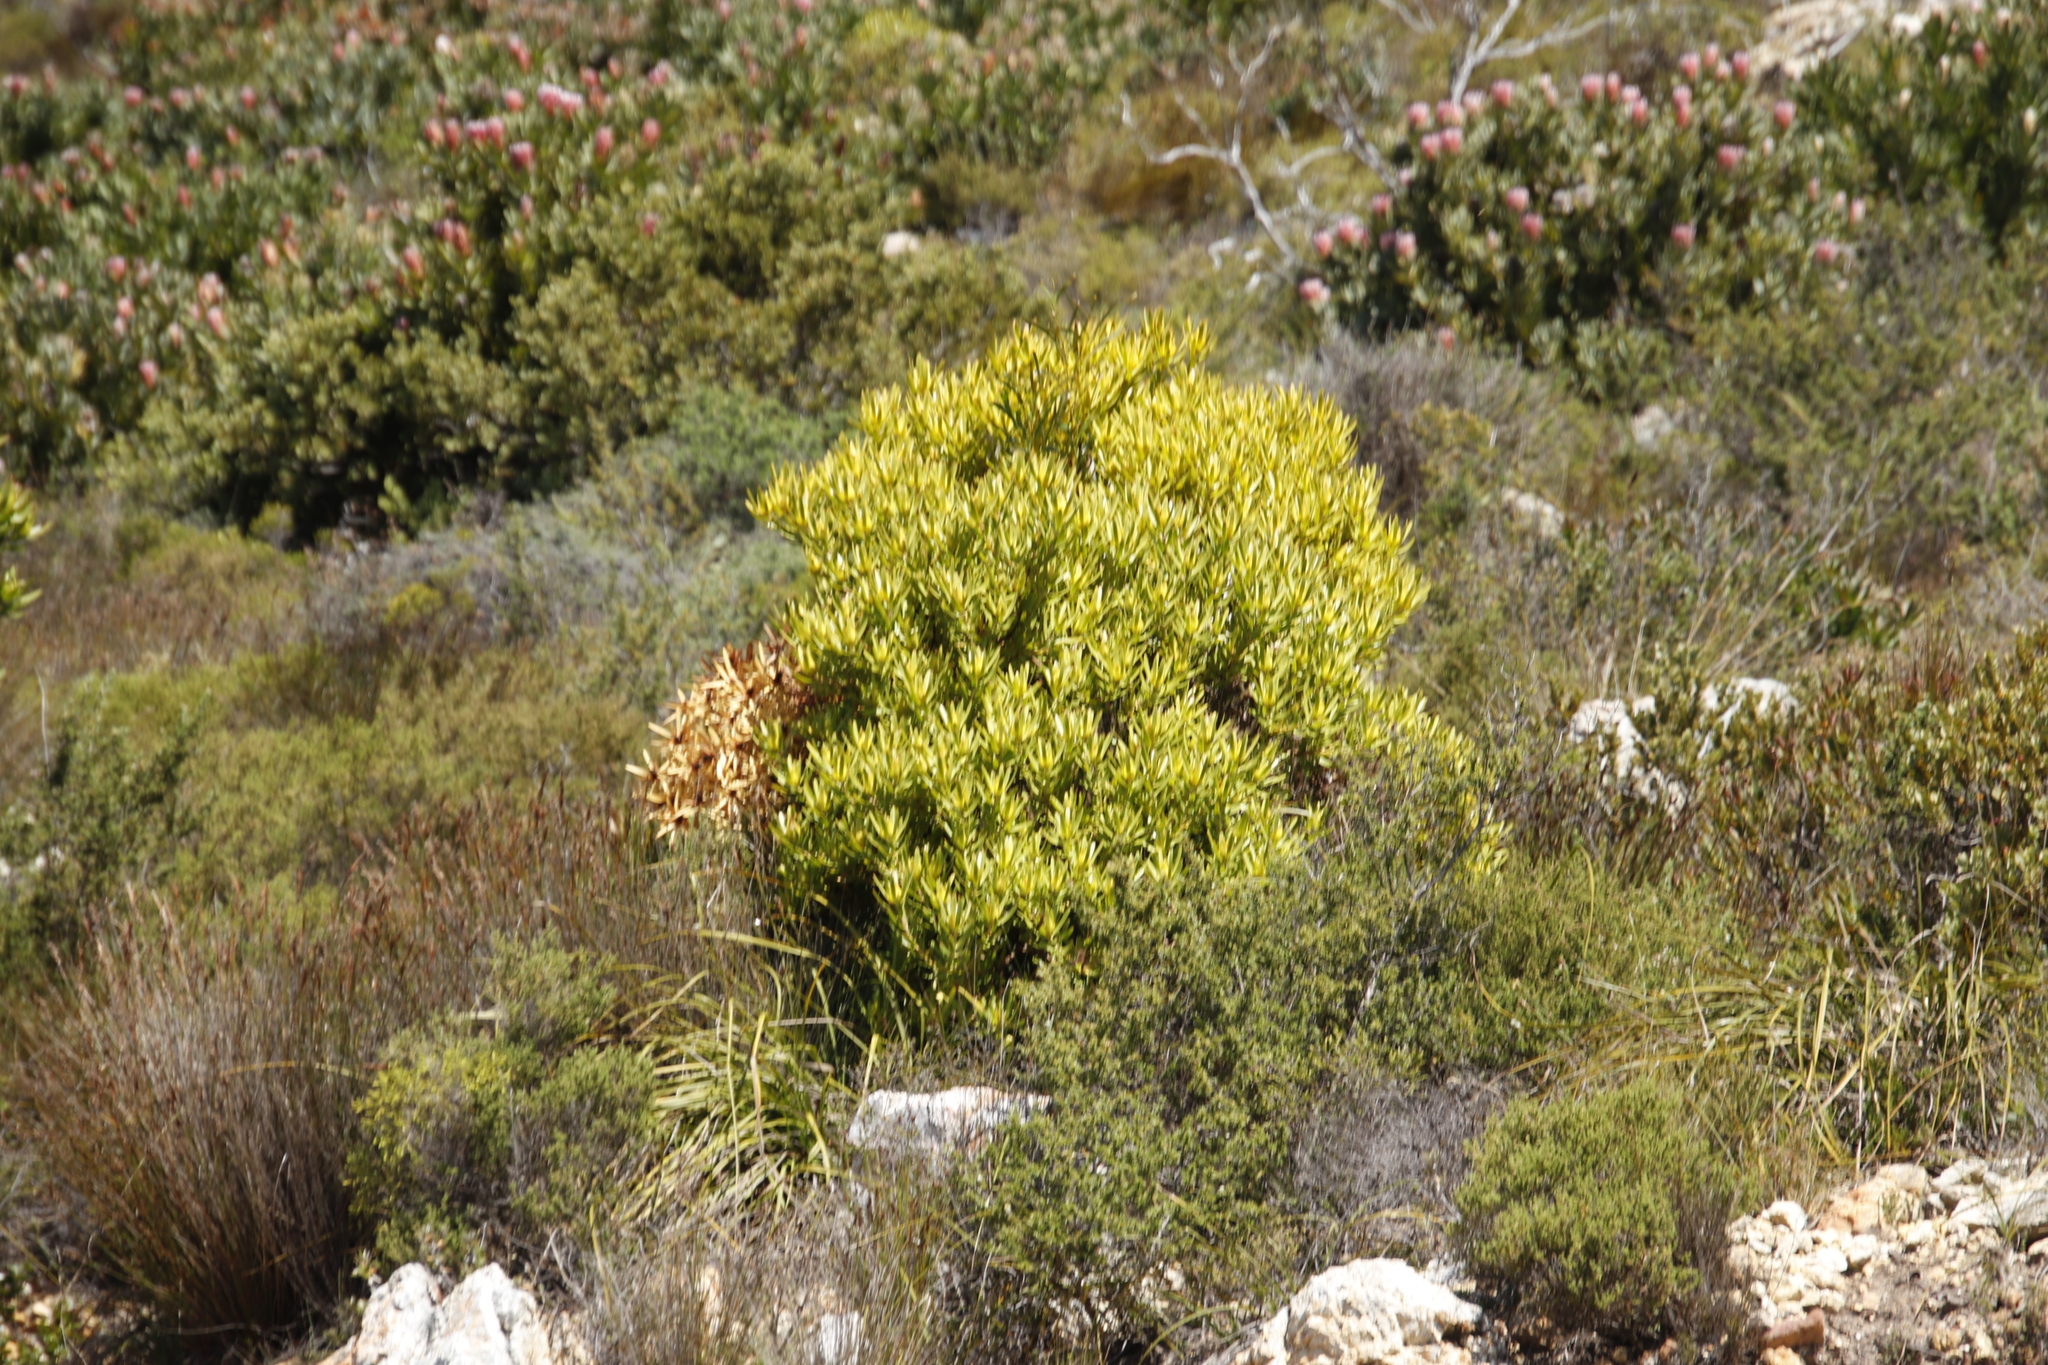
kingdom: Plantae
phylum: Tracheophyta
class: Magnoliopsida
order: Proteales
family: Proteaceae
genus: Leucadendron
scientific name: Leucadendron laureolum
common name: Golden sunshinebush
